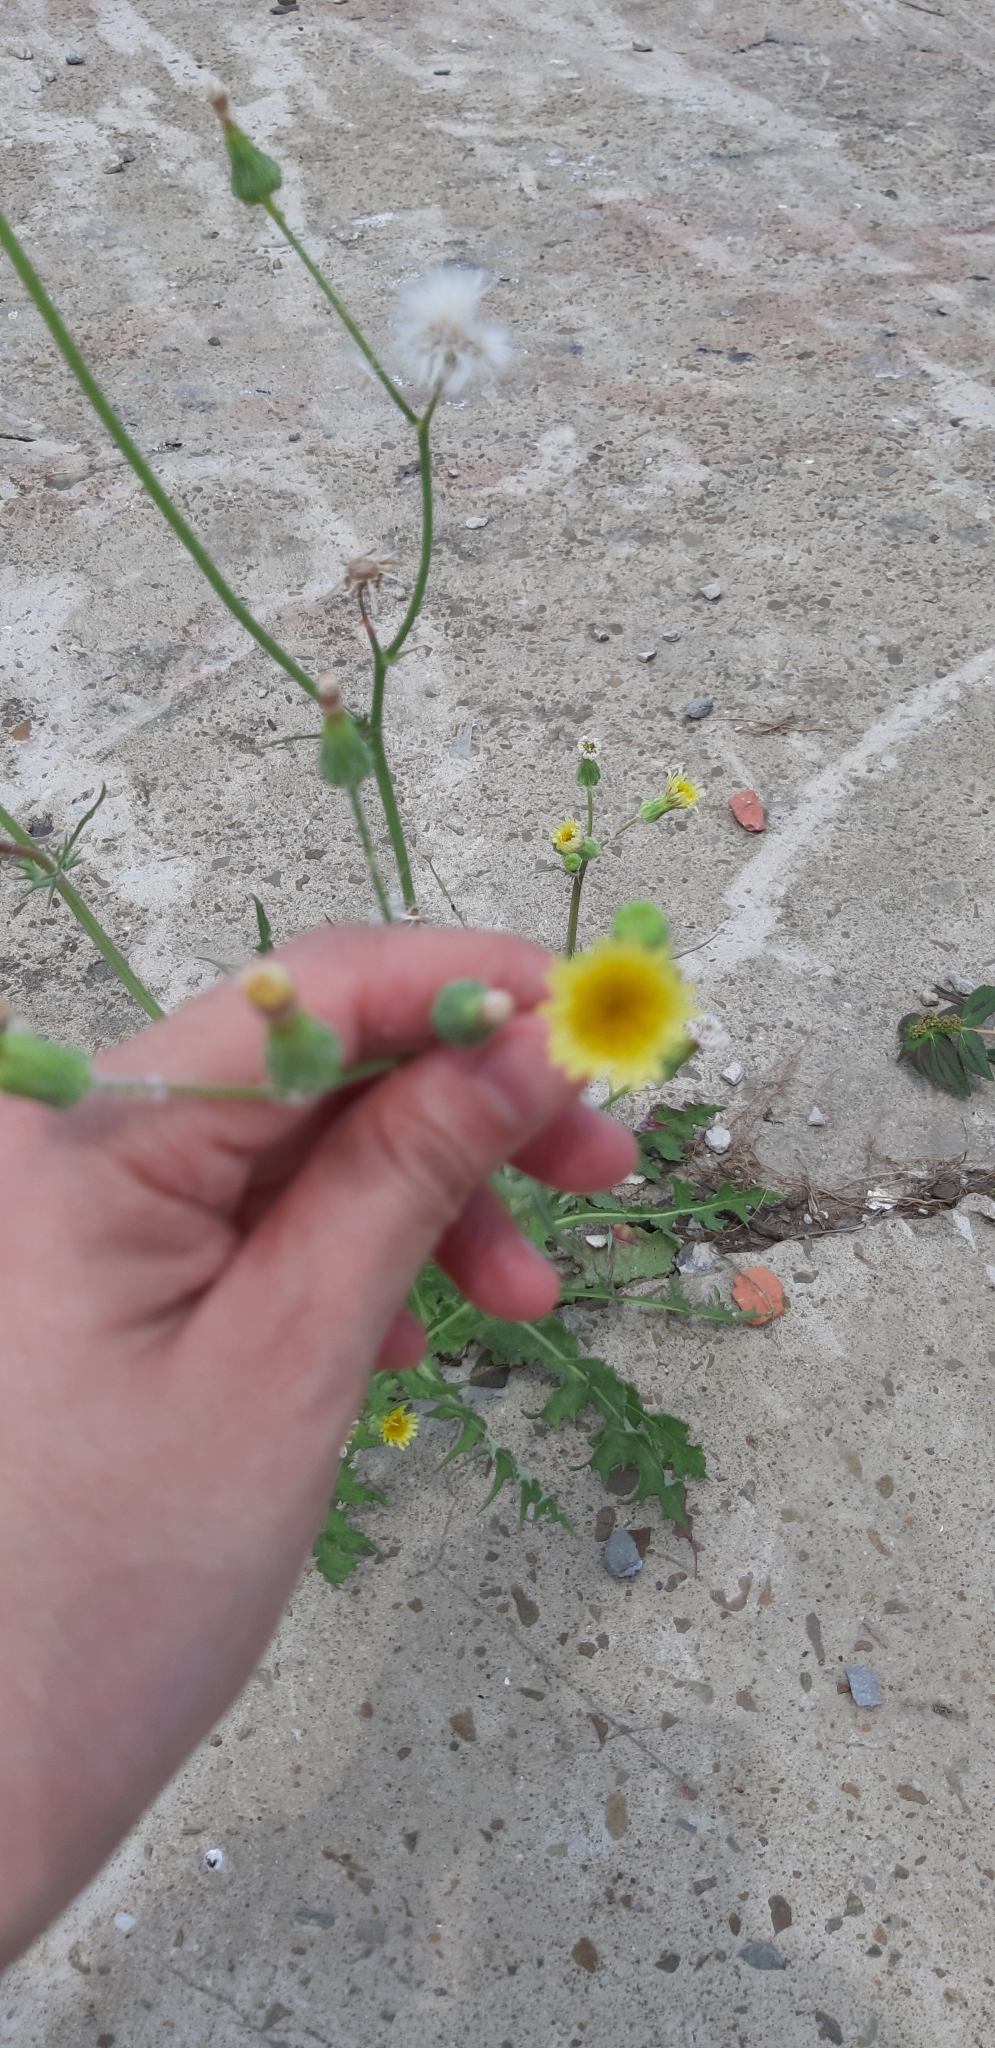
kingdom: Plantae
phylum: Tracheophyta
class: Magnoliopsida
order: Asterales
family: Asteraceae
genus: Sonchus
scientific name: Sonchus oleraceus
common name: Common sowthistle
